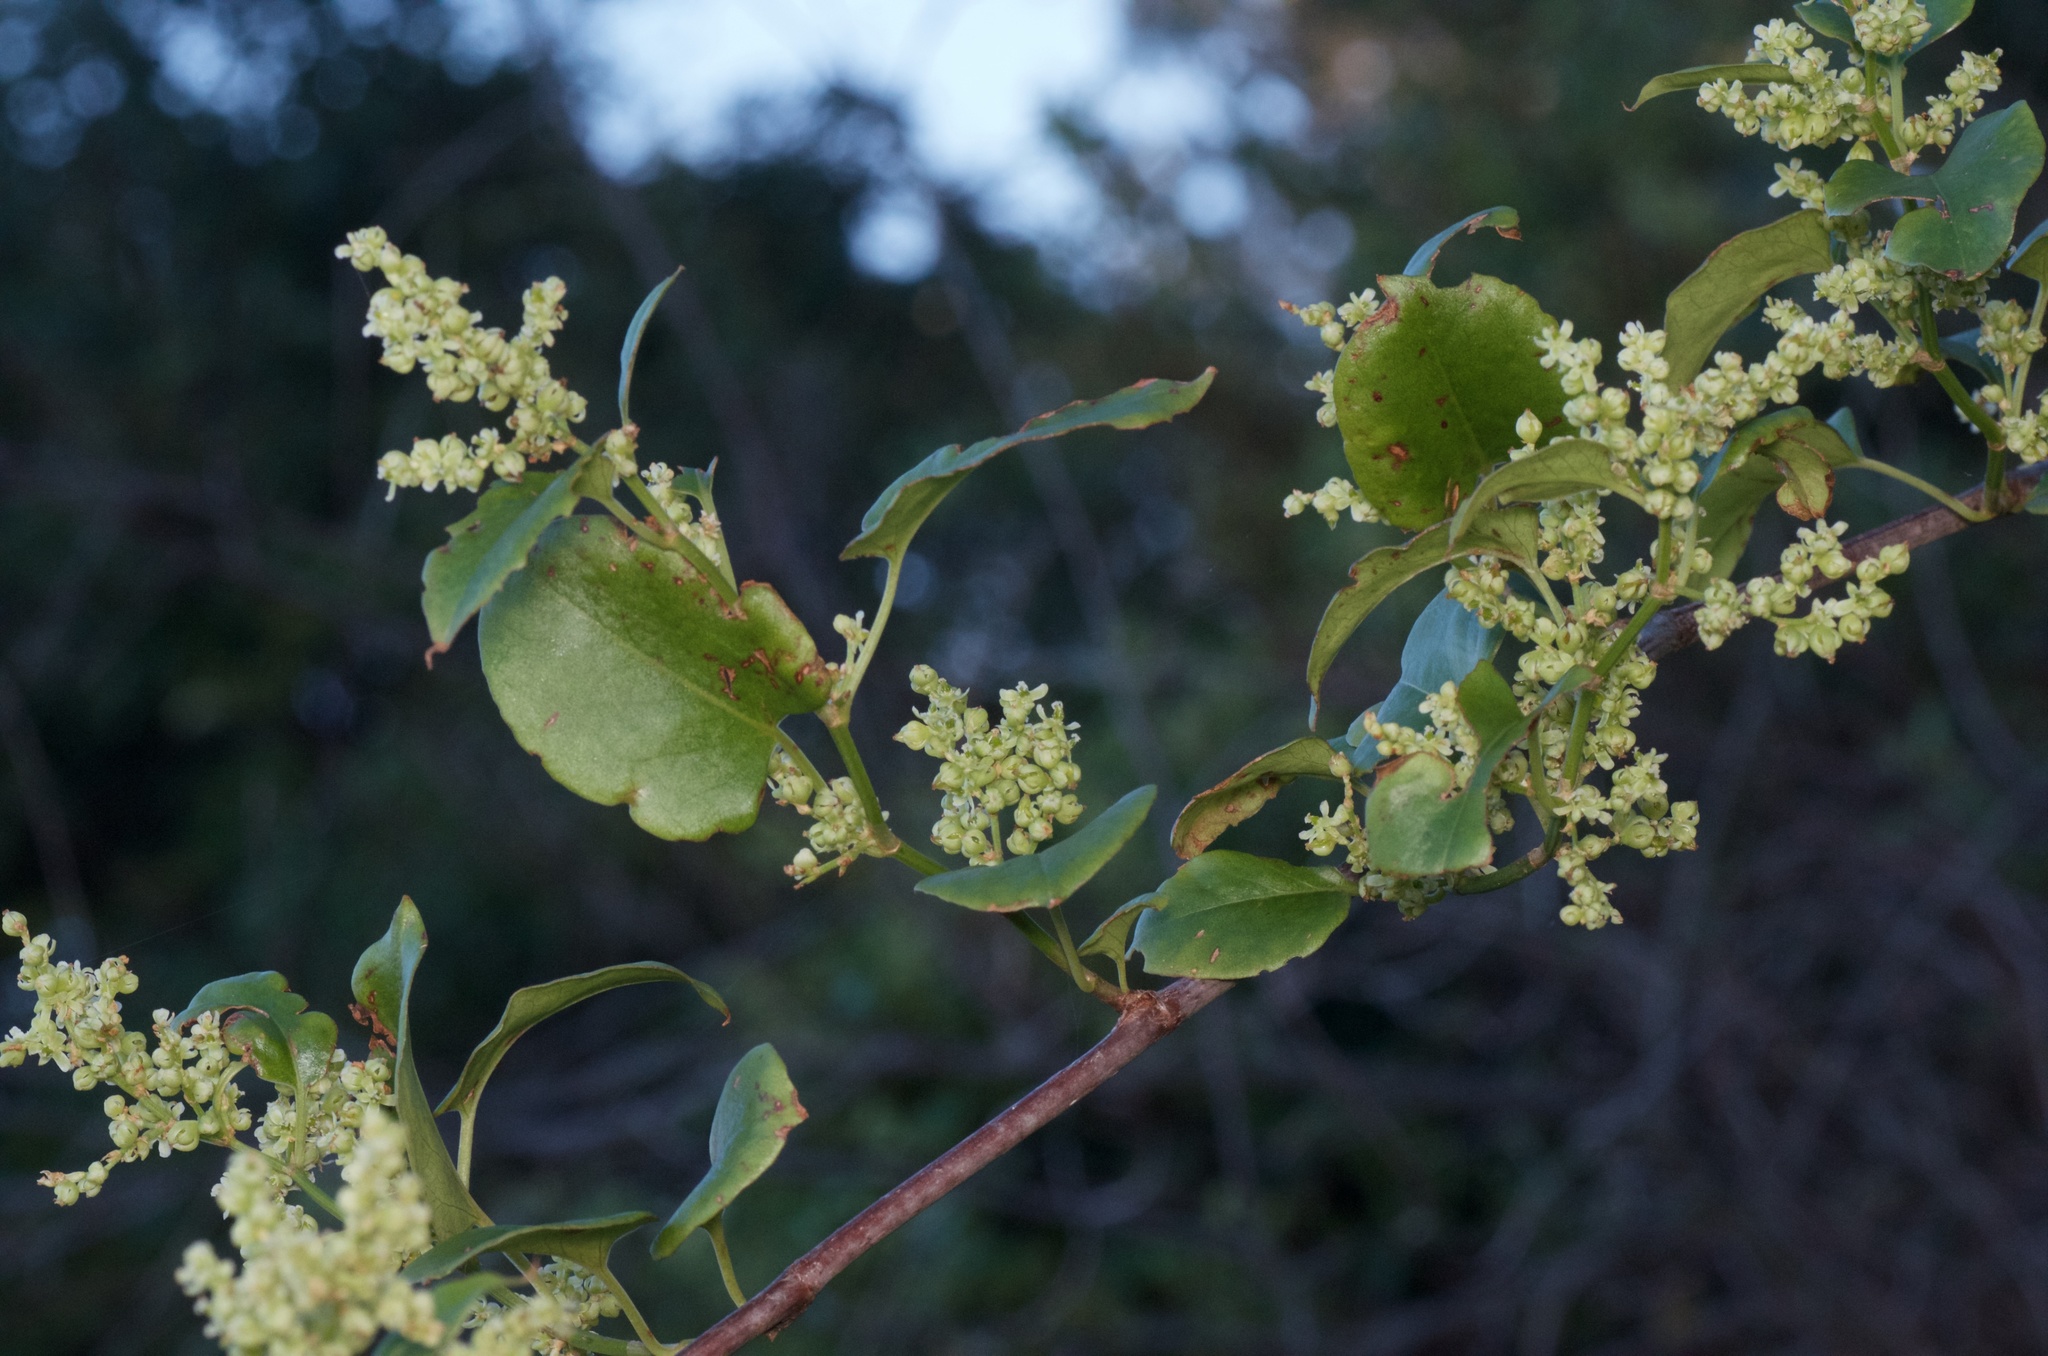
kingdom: Plantae
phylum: Tracheophyta
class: Magnoliopsida
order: Caryophyllales
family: Polygonaceae
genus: Muehlenbeckia
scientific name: Muehlenbeckia australis
